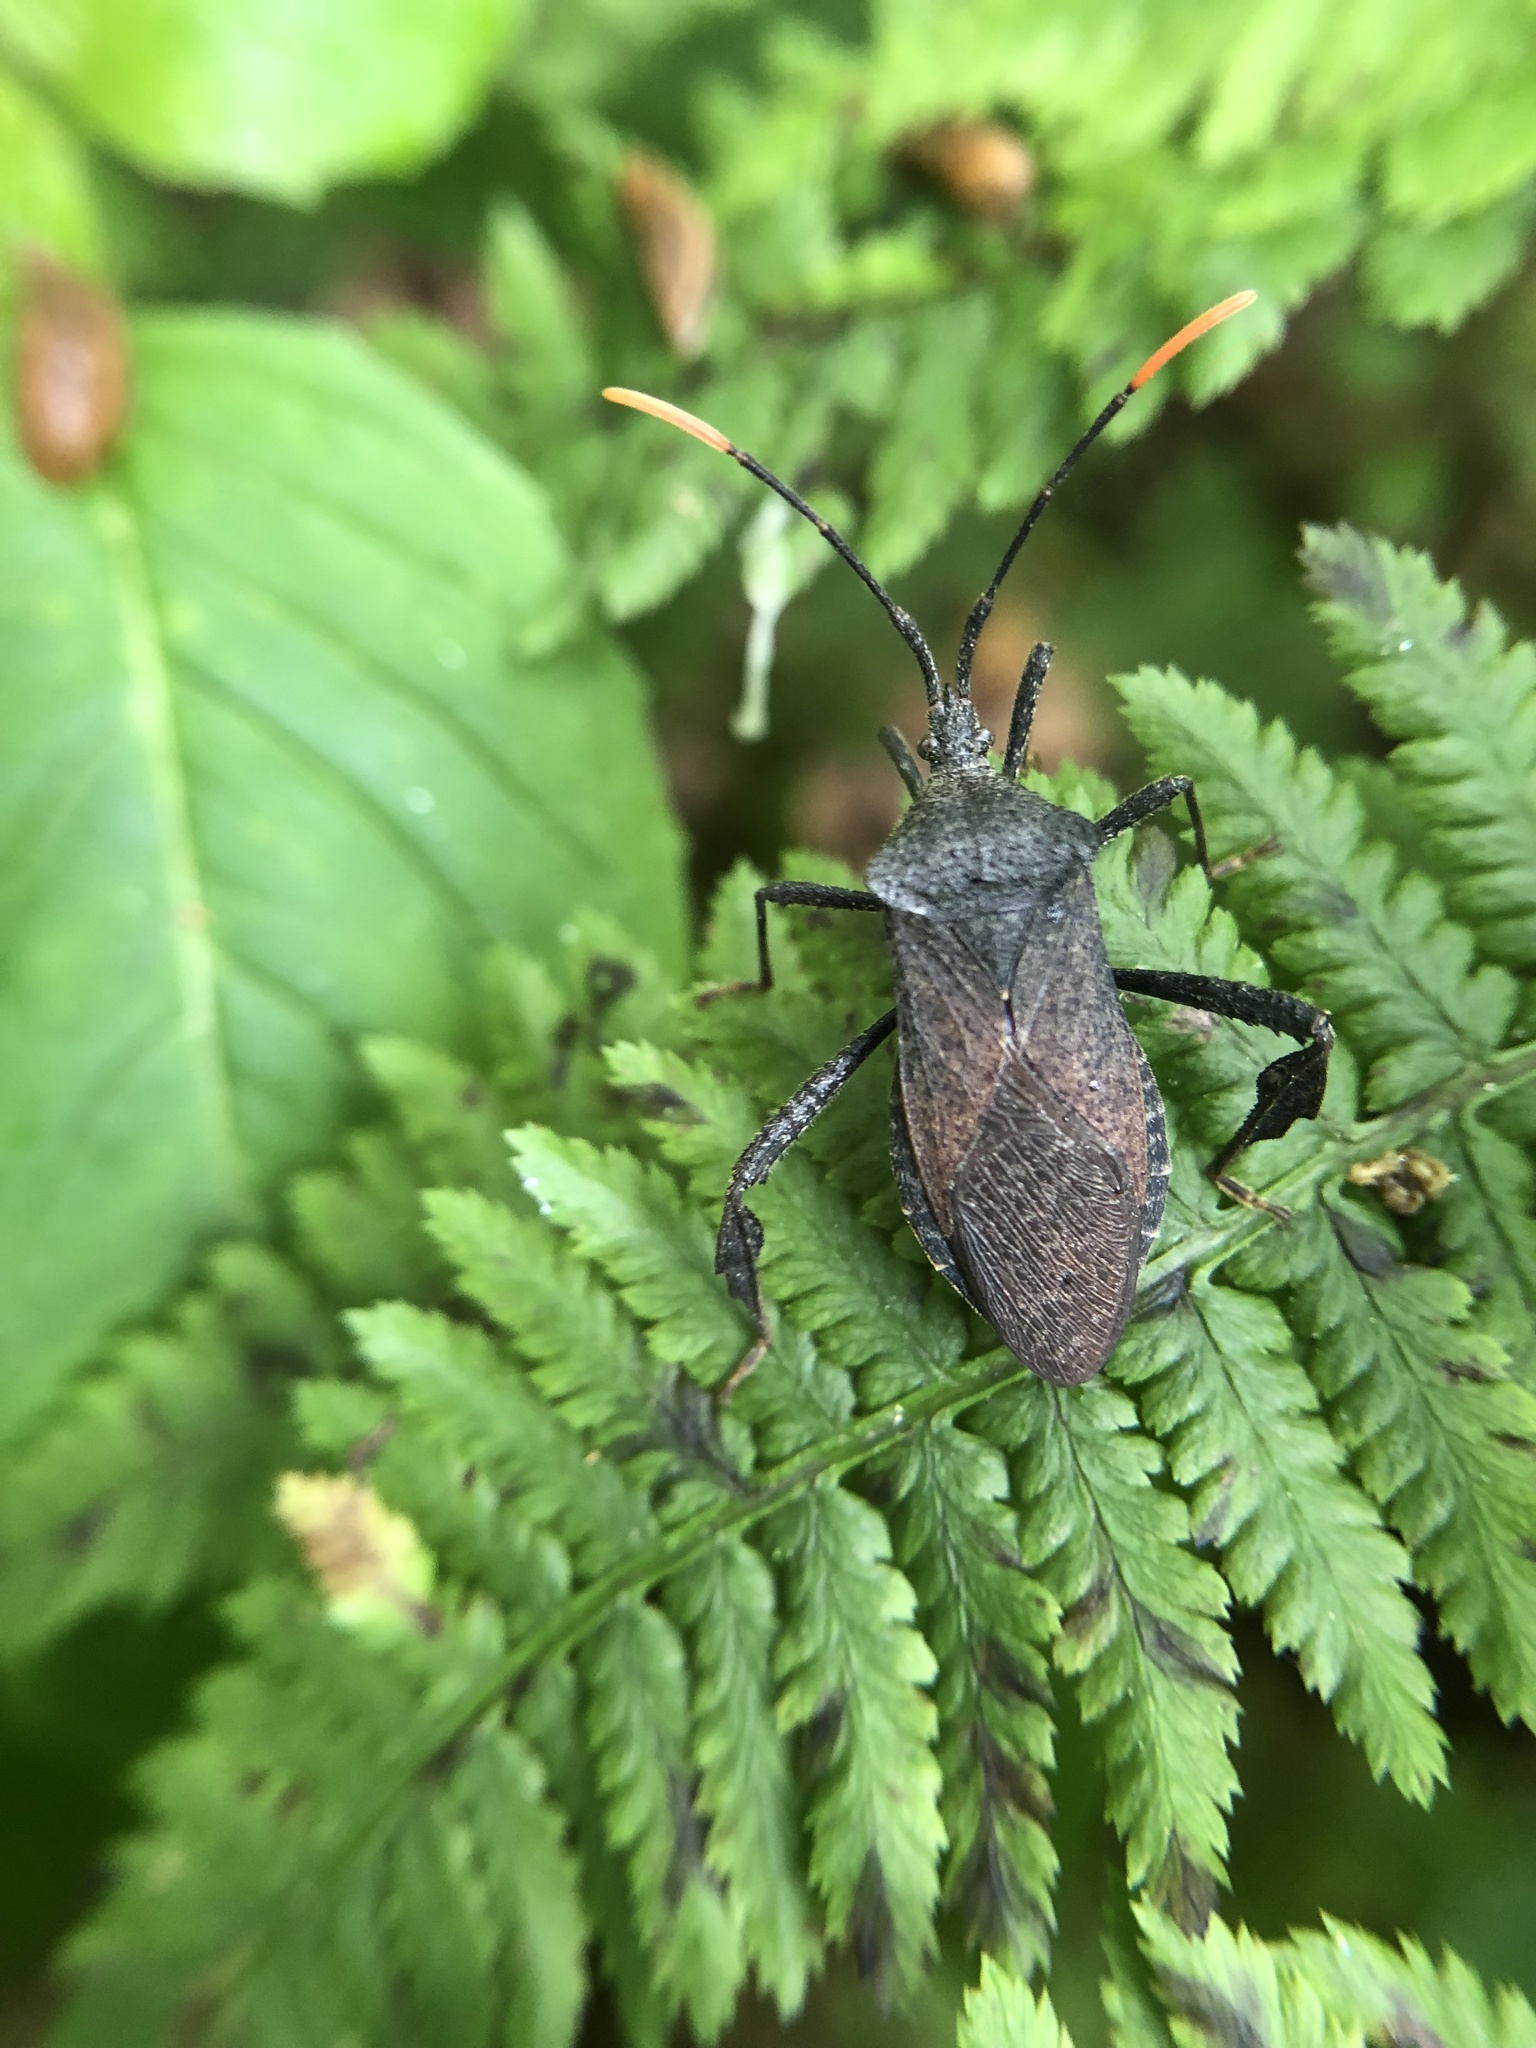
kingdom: Animalia
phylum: Arthropoda
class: Insecta
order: Hemiptera
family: Coreidae
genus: Acanthocephala
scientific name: Acanthocephala terminalis
